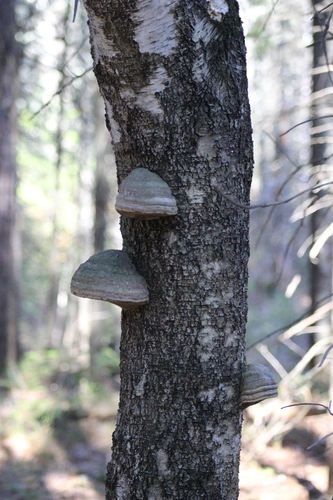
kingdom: Fungi
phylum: Basidiomycota
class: Agaricomycetes
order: Polyporales
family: Polyporaceae
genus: Fomes
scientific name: Fomes fomentarius
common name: Hoof fungus
